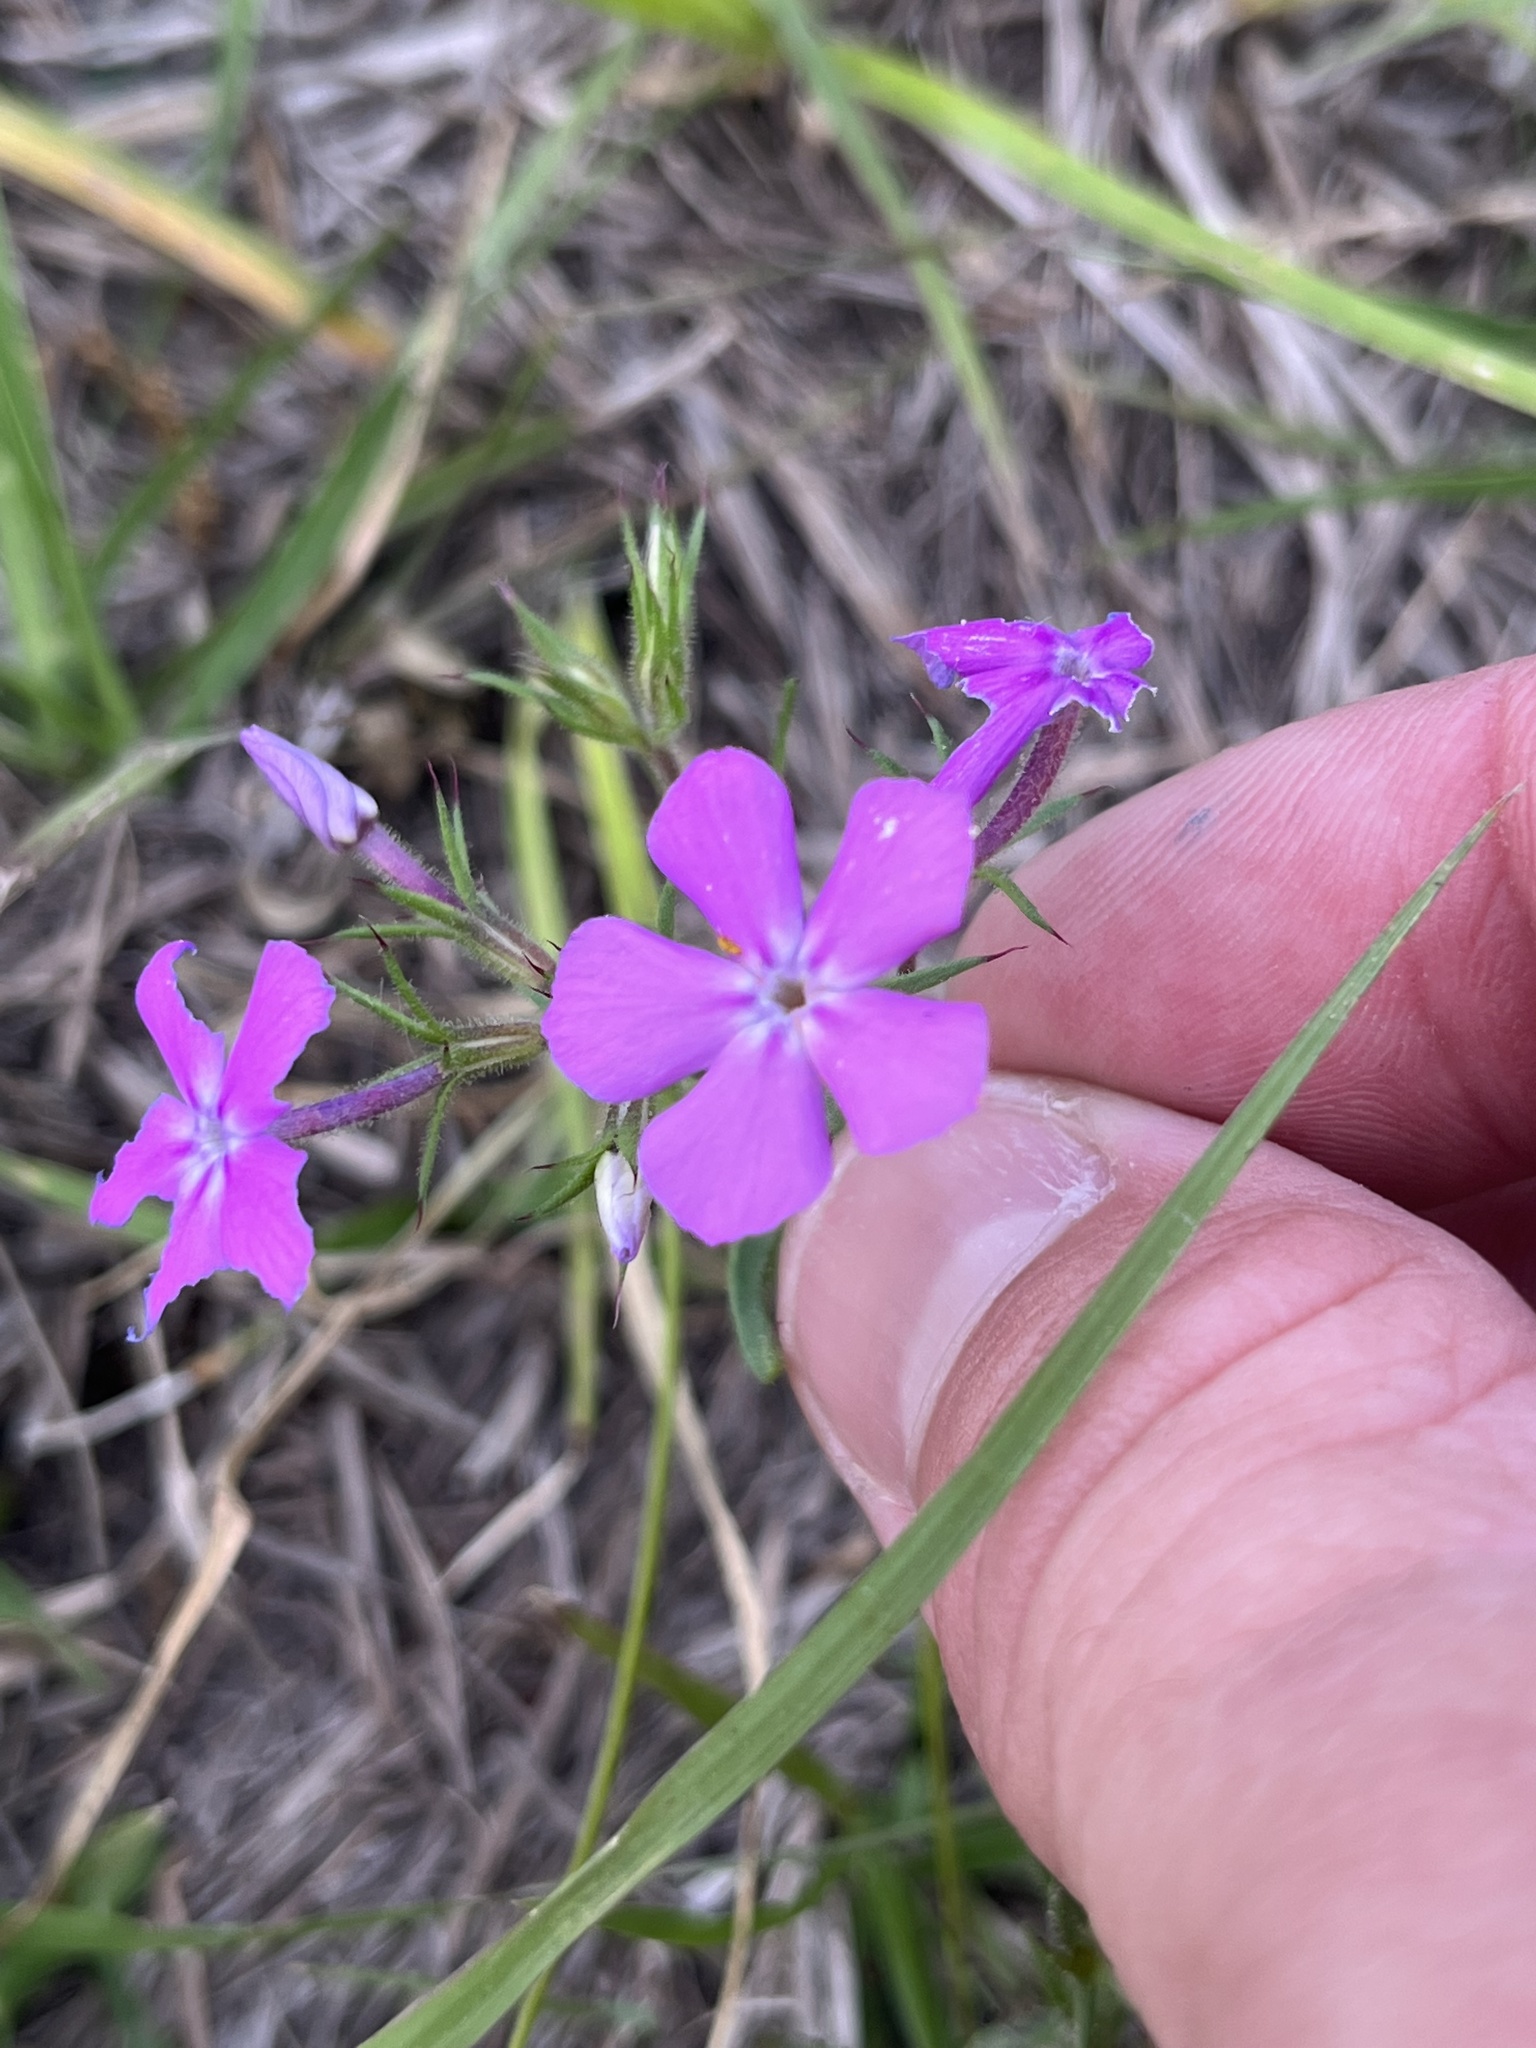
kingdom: Plantae
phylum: Tracheophyta
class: Magnoliopsida
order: Ericales
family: Polemoniaceae
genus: Phlox
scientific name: Phlox cuspidata
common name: Pointed phlox
